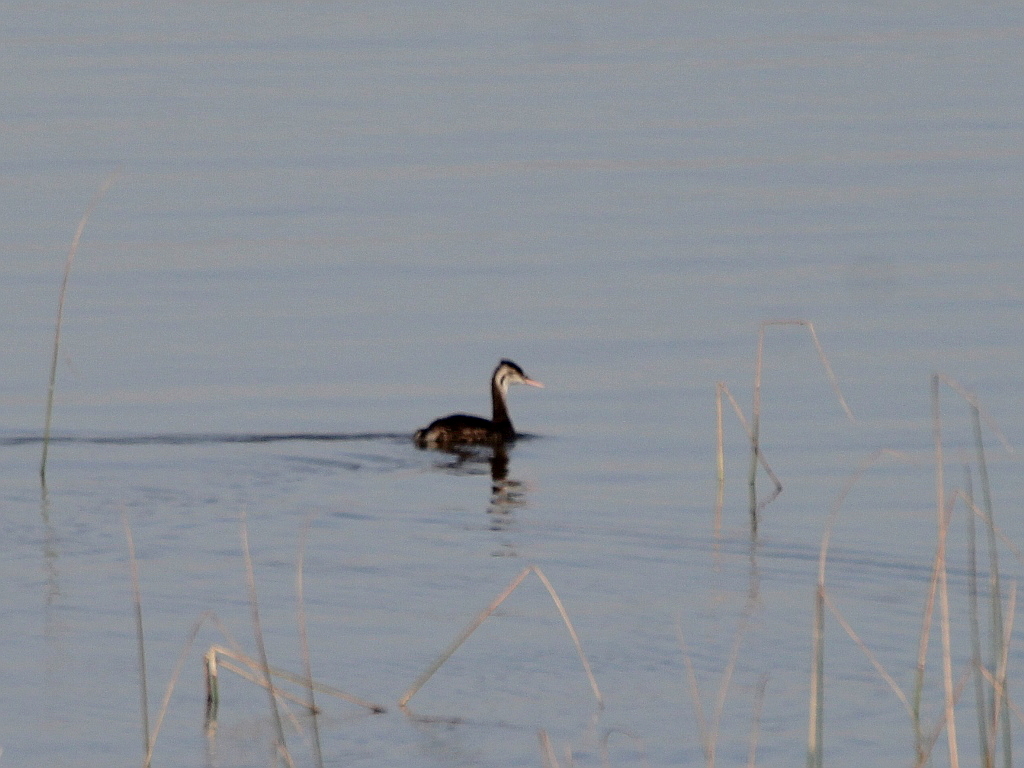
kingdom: Animalia
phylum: Chordata
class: Aves
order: Podicipediformes
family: Podicipedidae
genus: Podiceps
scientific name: Podiceps cristatus
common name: Great crested grebe
